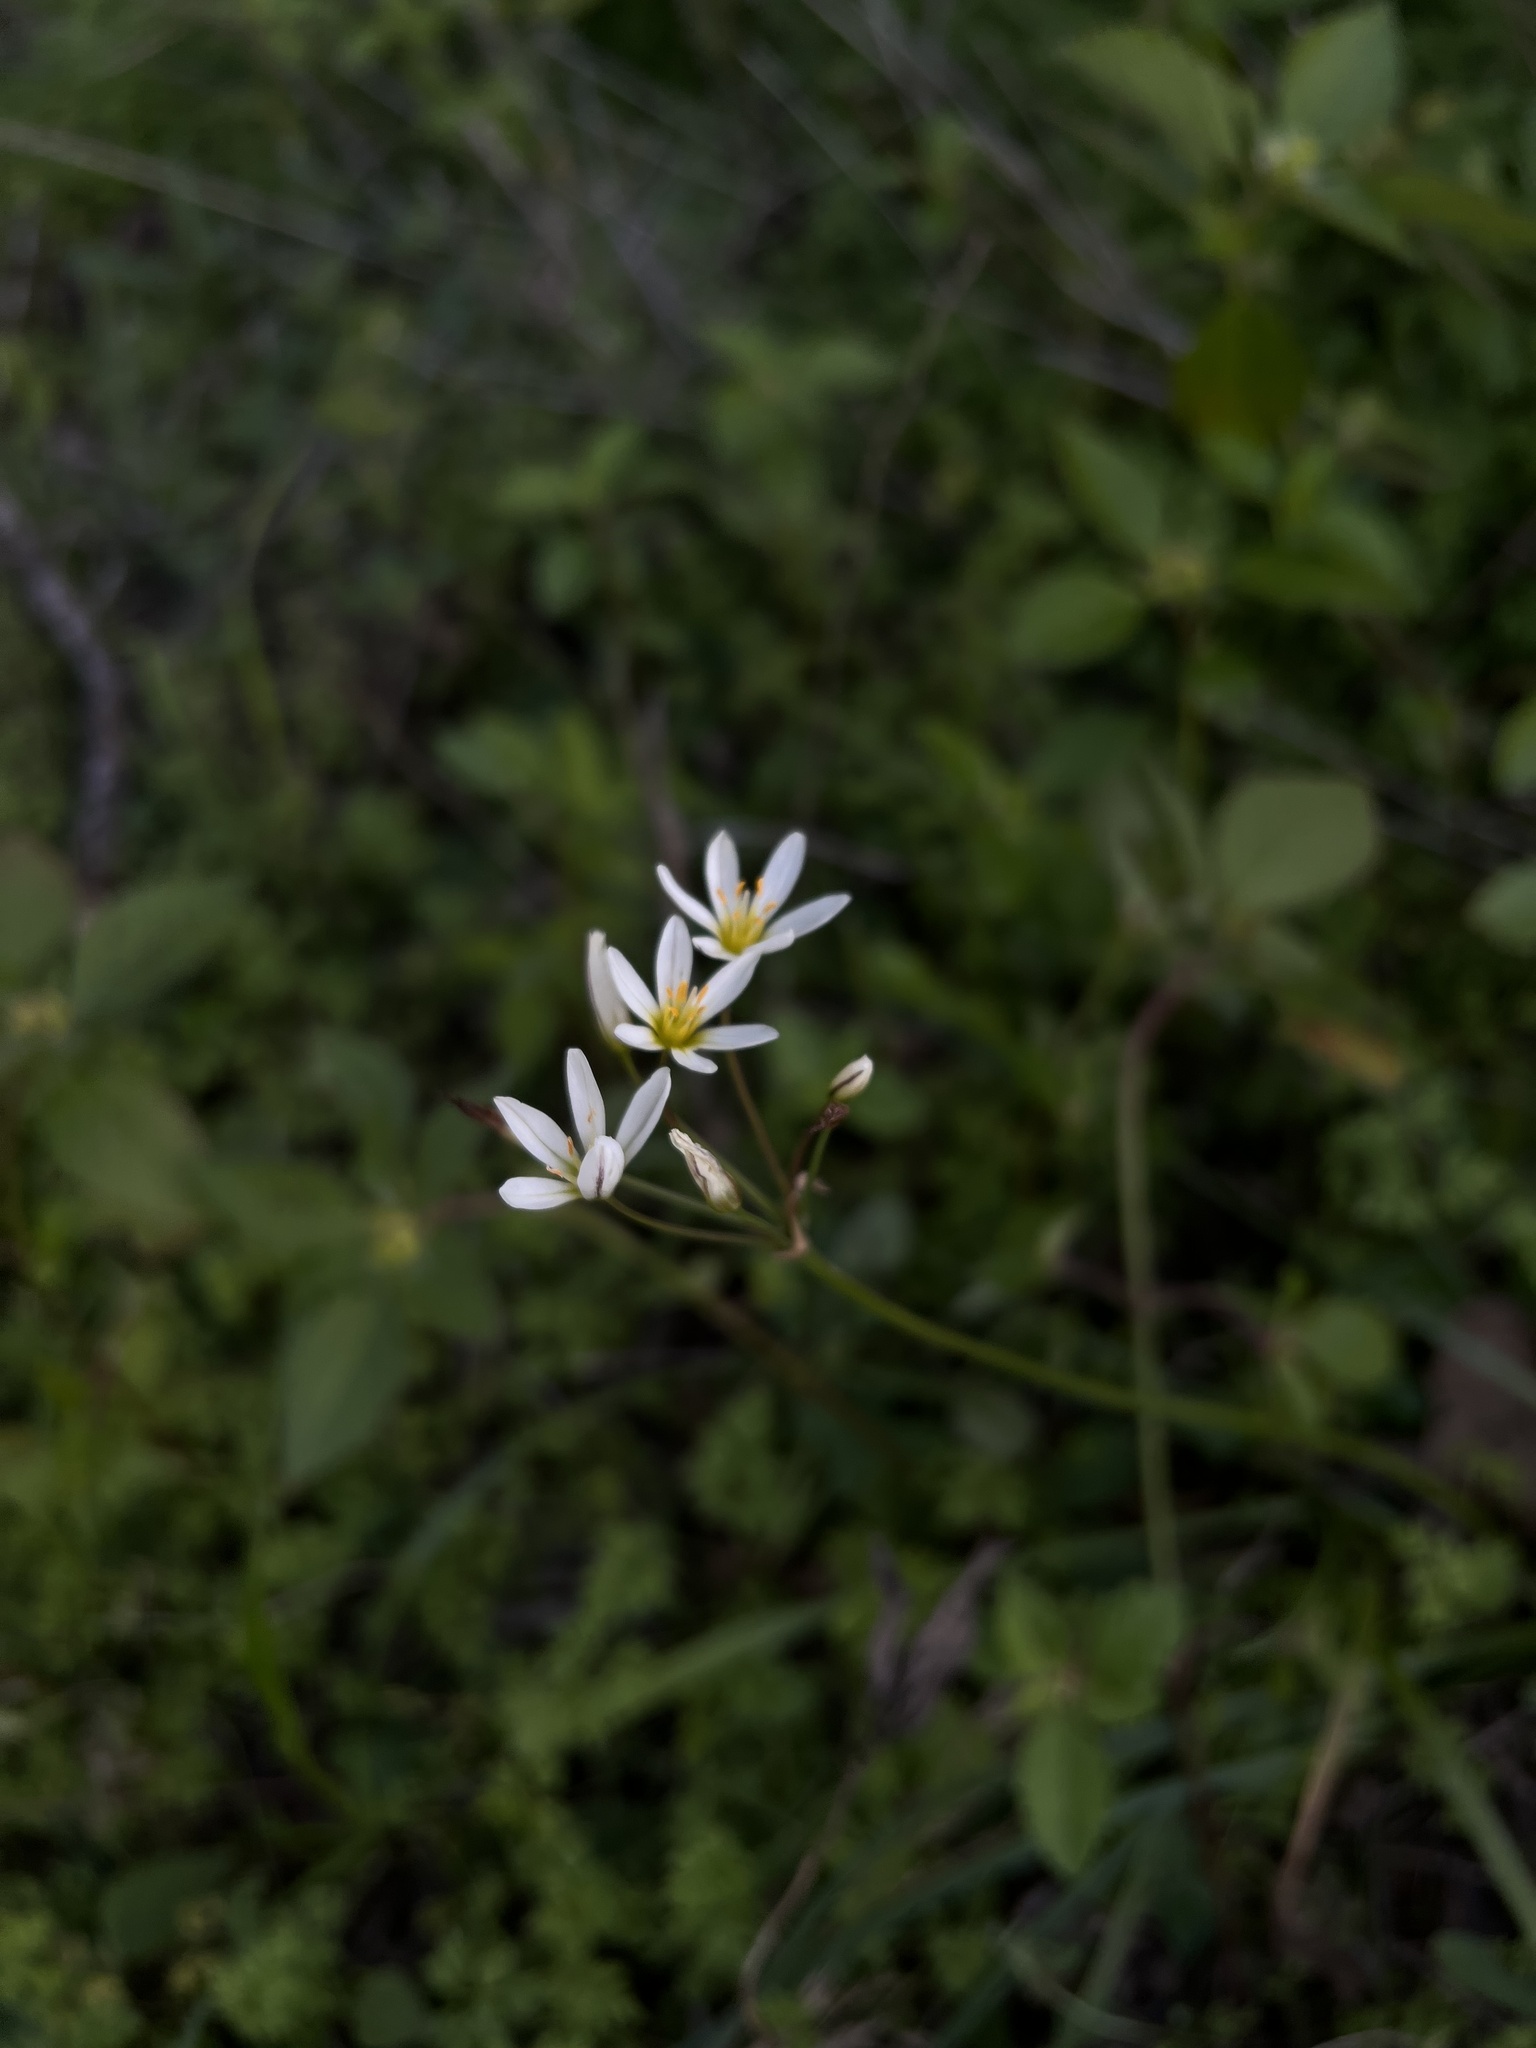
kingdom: Plantae
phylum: Tracheophyta
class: Liliopsida
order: Asparagales
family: Amaryllidaceae
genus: Nothoscordum
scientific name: Nothoscordum bivalve
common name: Crow-poison
